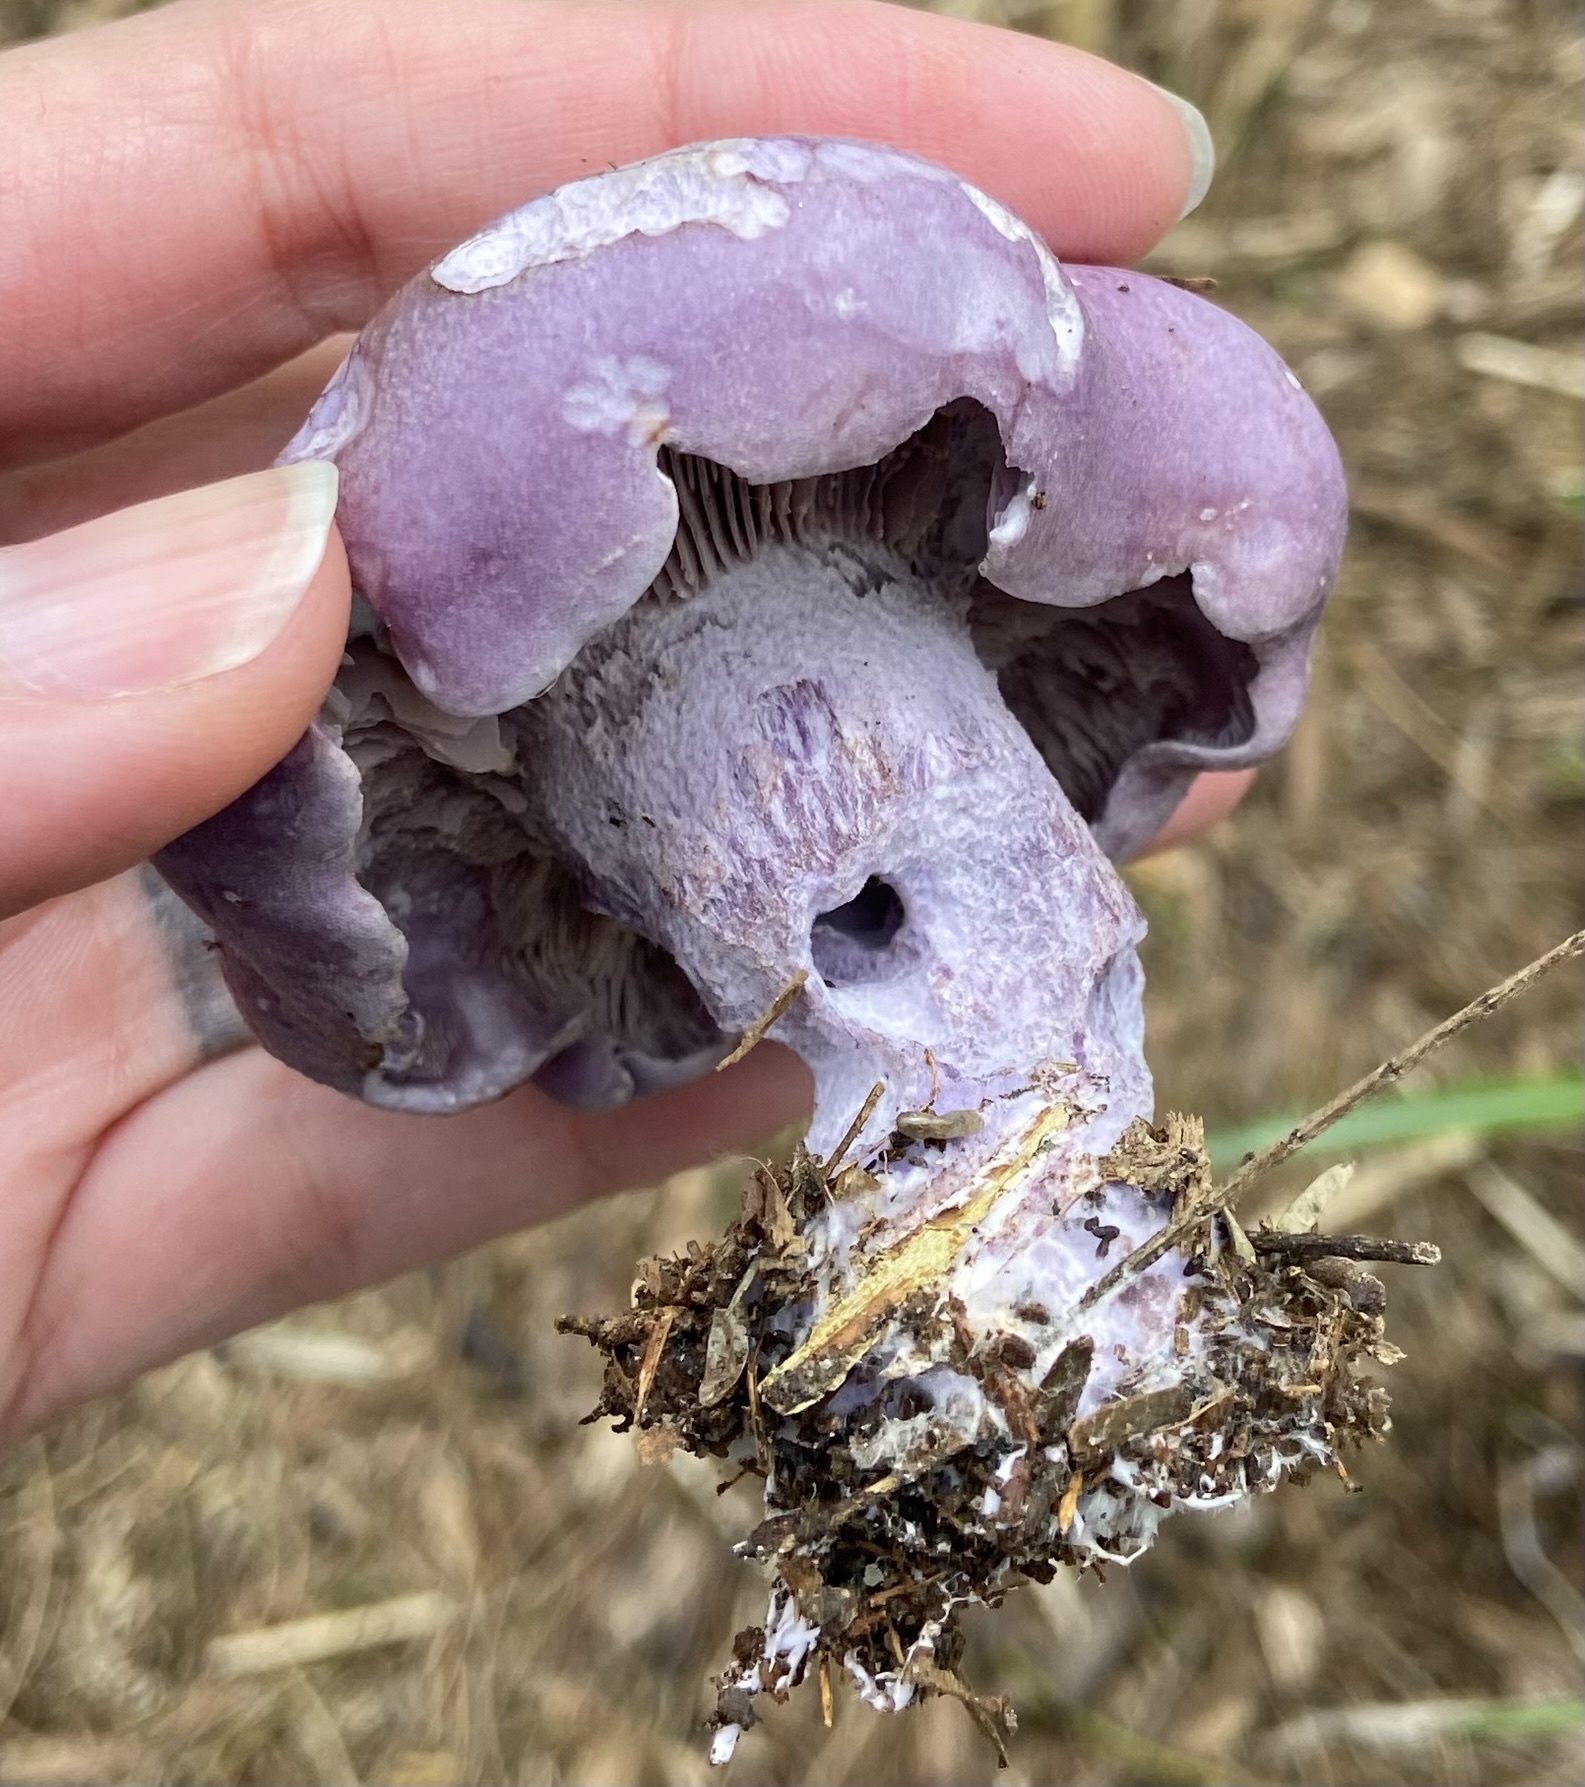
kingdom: Fungi
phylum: Basidiomycota
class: Agaricomycetes
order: Agaricales
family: Tricholomataceae
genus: Collybia
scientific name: Collybia
